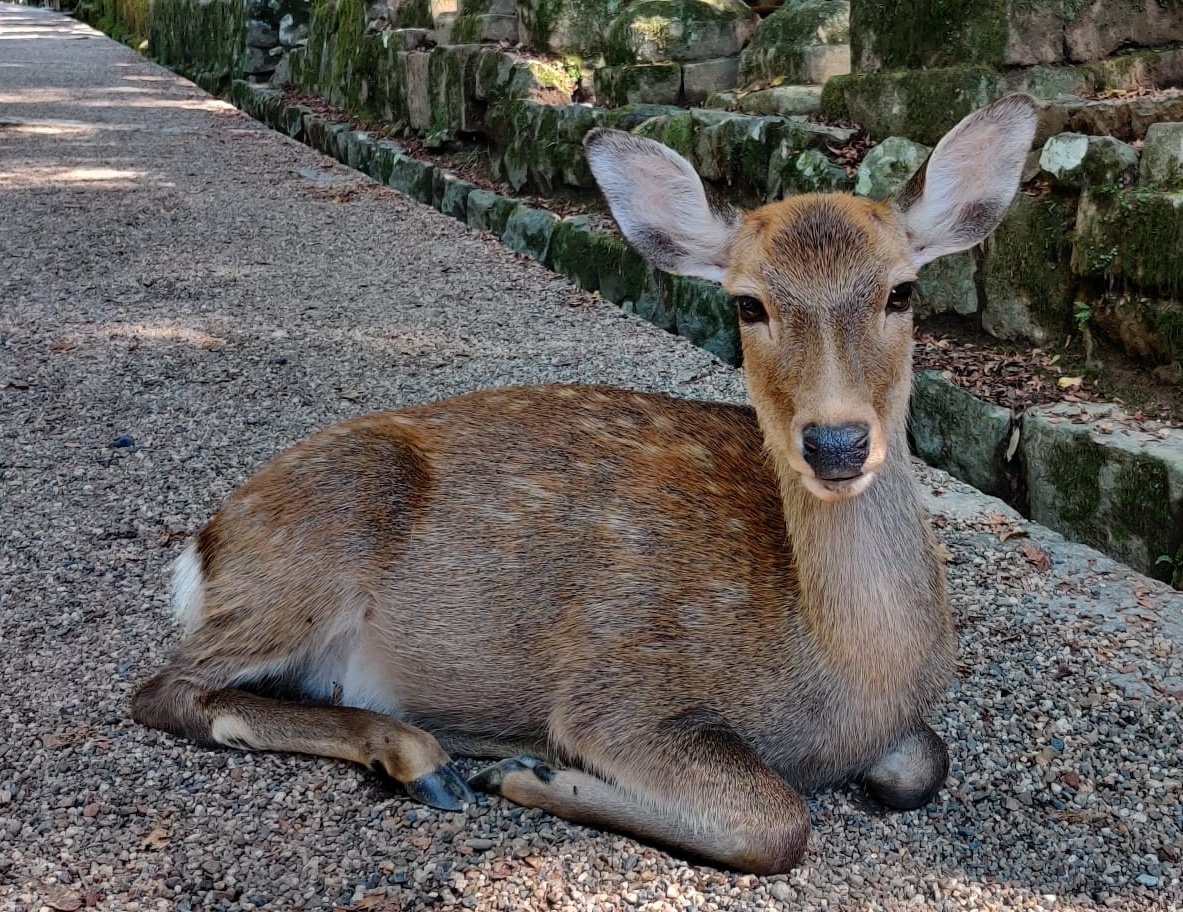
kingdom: Animalia
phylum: Chordata
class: Mammalia
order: Artiodactyla
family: Cervidae
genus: Cervus
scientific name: Cervus nippon
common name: Sika deer
